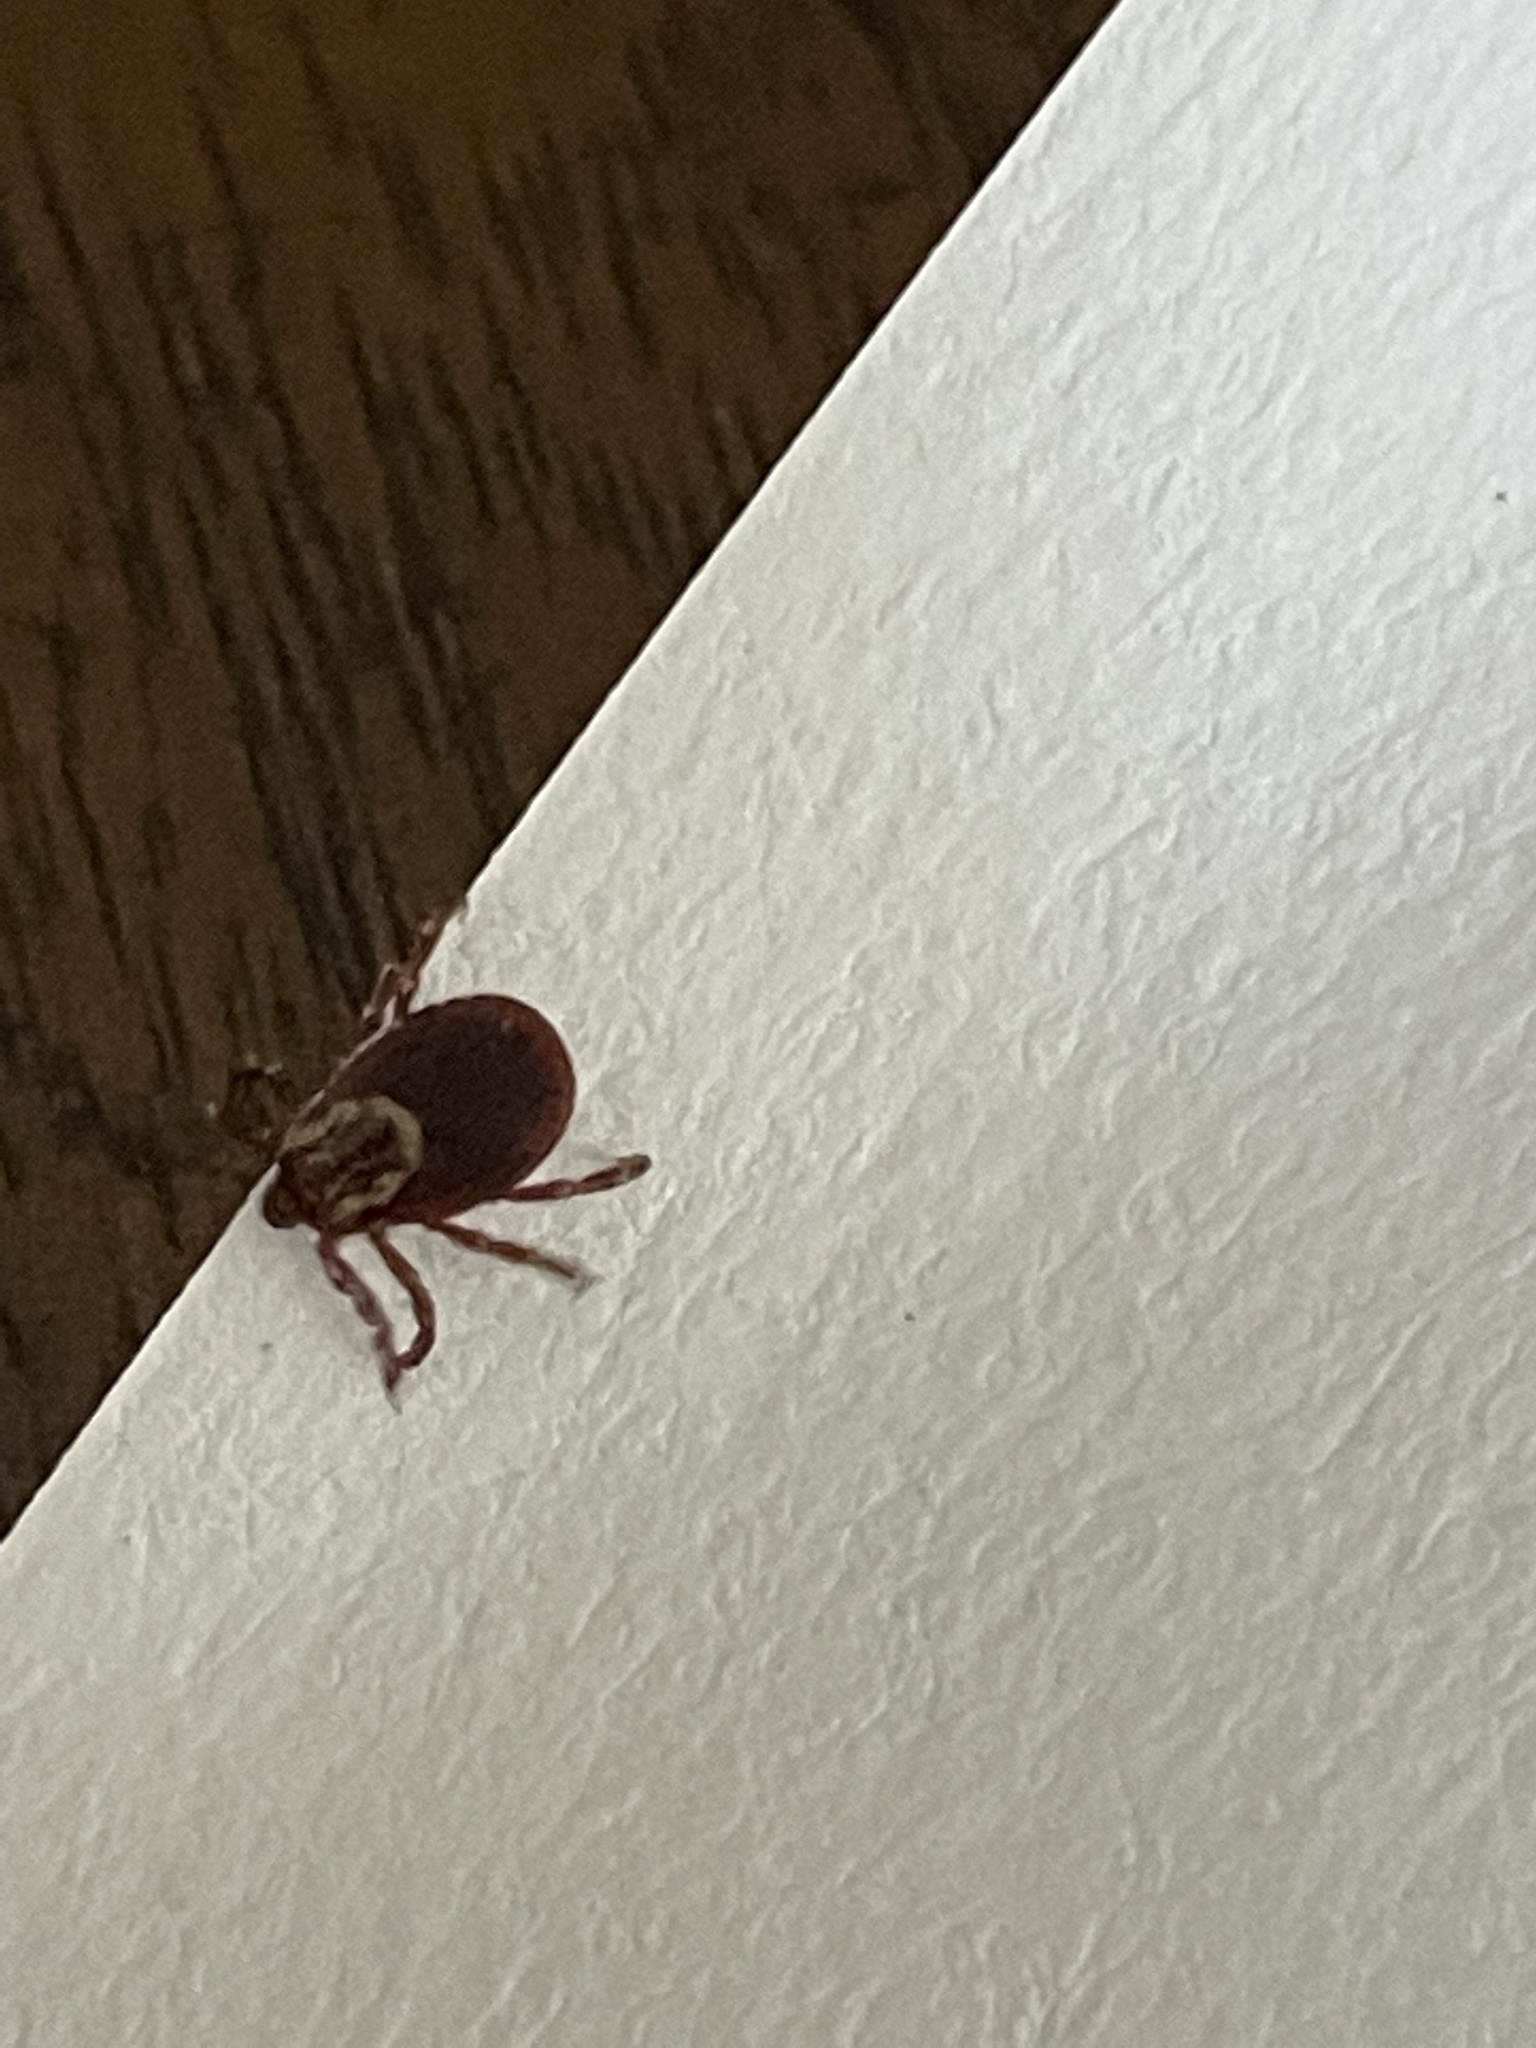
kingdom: Animalia
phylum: Arthropoda
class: Arachnida
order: Ixodida
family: Ixodidae
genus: Dermacentor
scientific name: Dermacentor variabilis
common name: American dog tick
